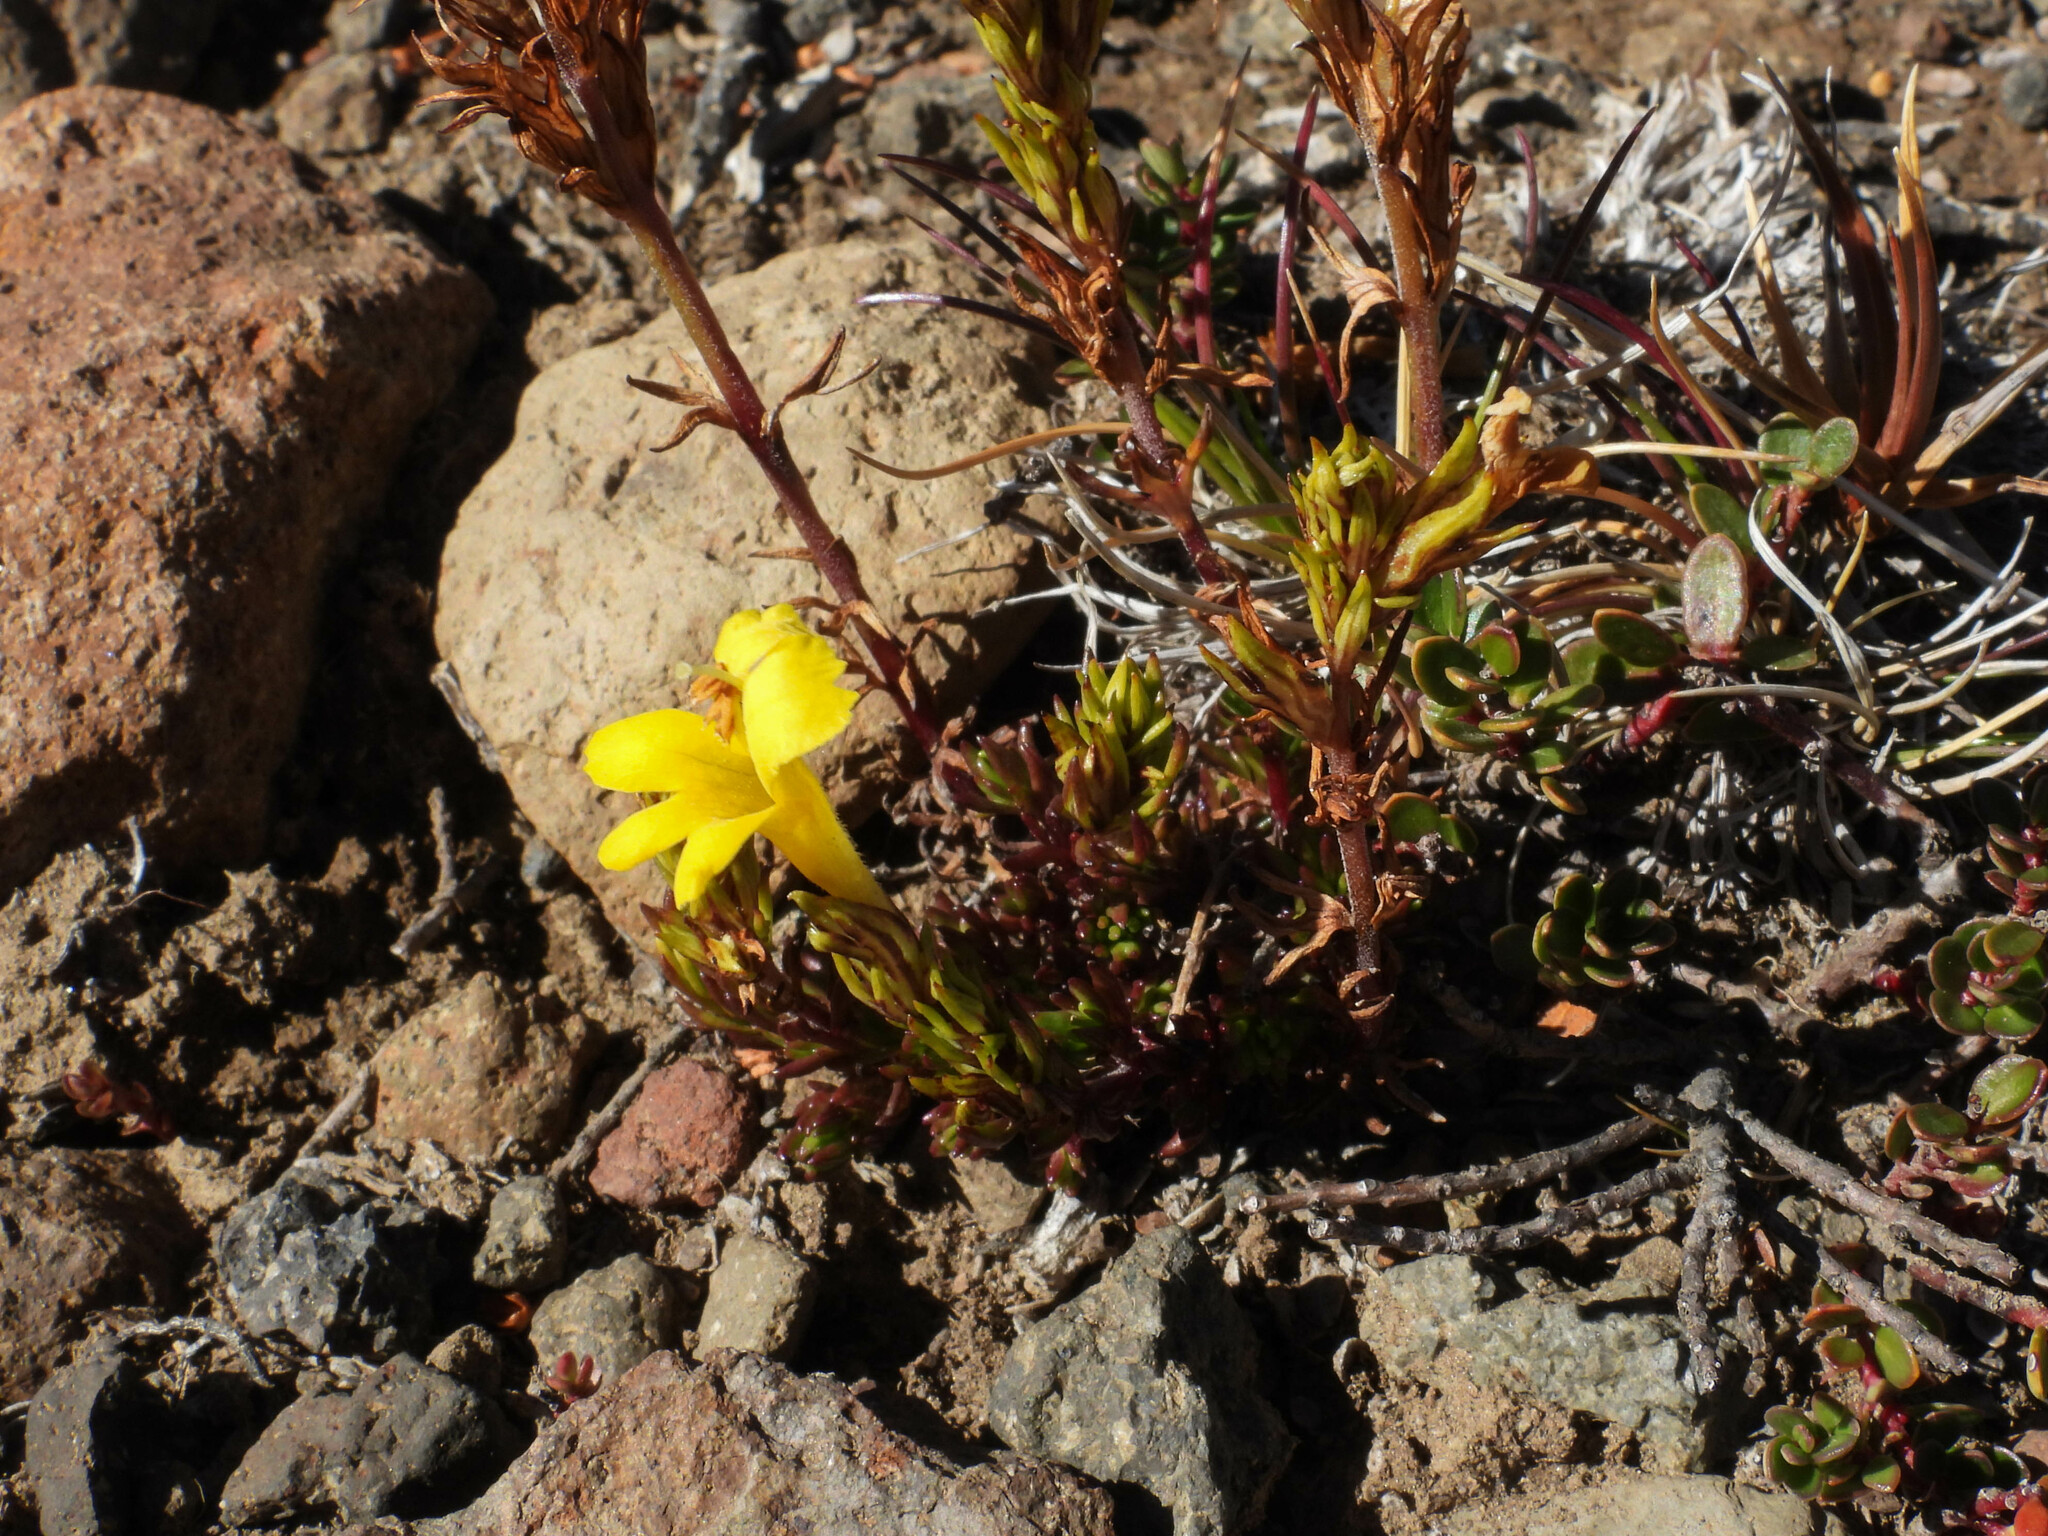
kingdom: Plantae
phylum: Tracheophyta
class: Magnoliopsida
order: Lamiales
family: Orobanchaceae
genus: Euphrasia
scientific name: Euphrasia subexserta
